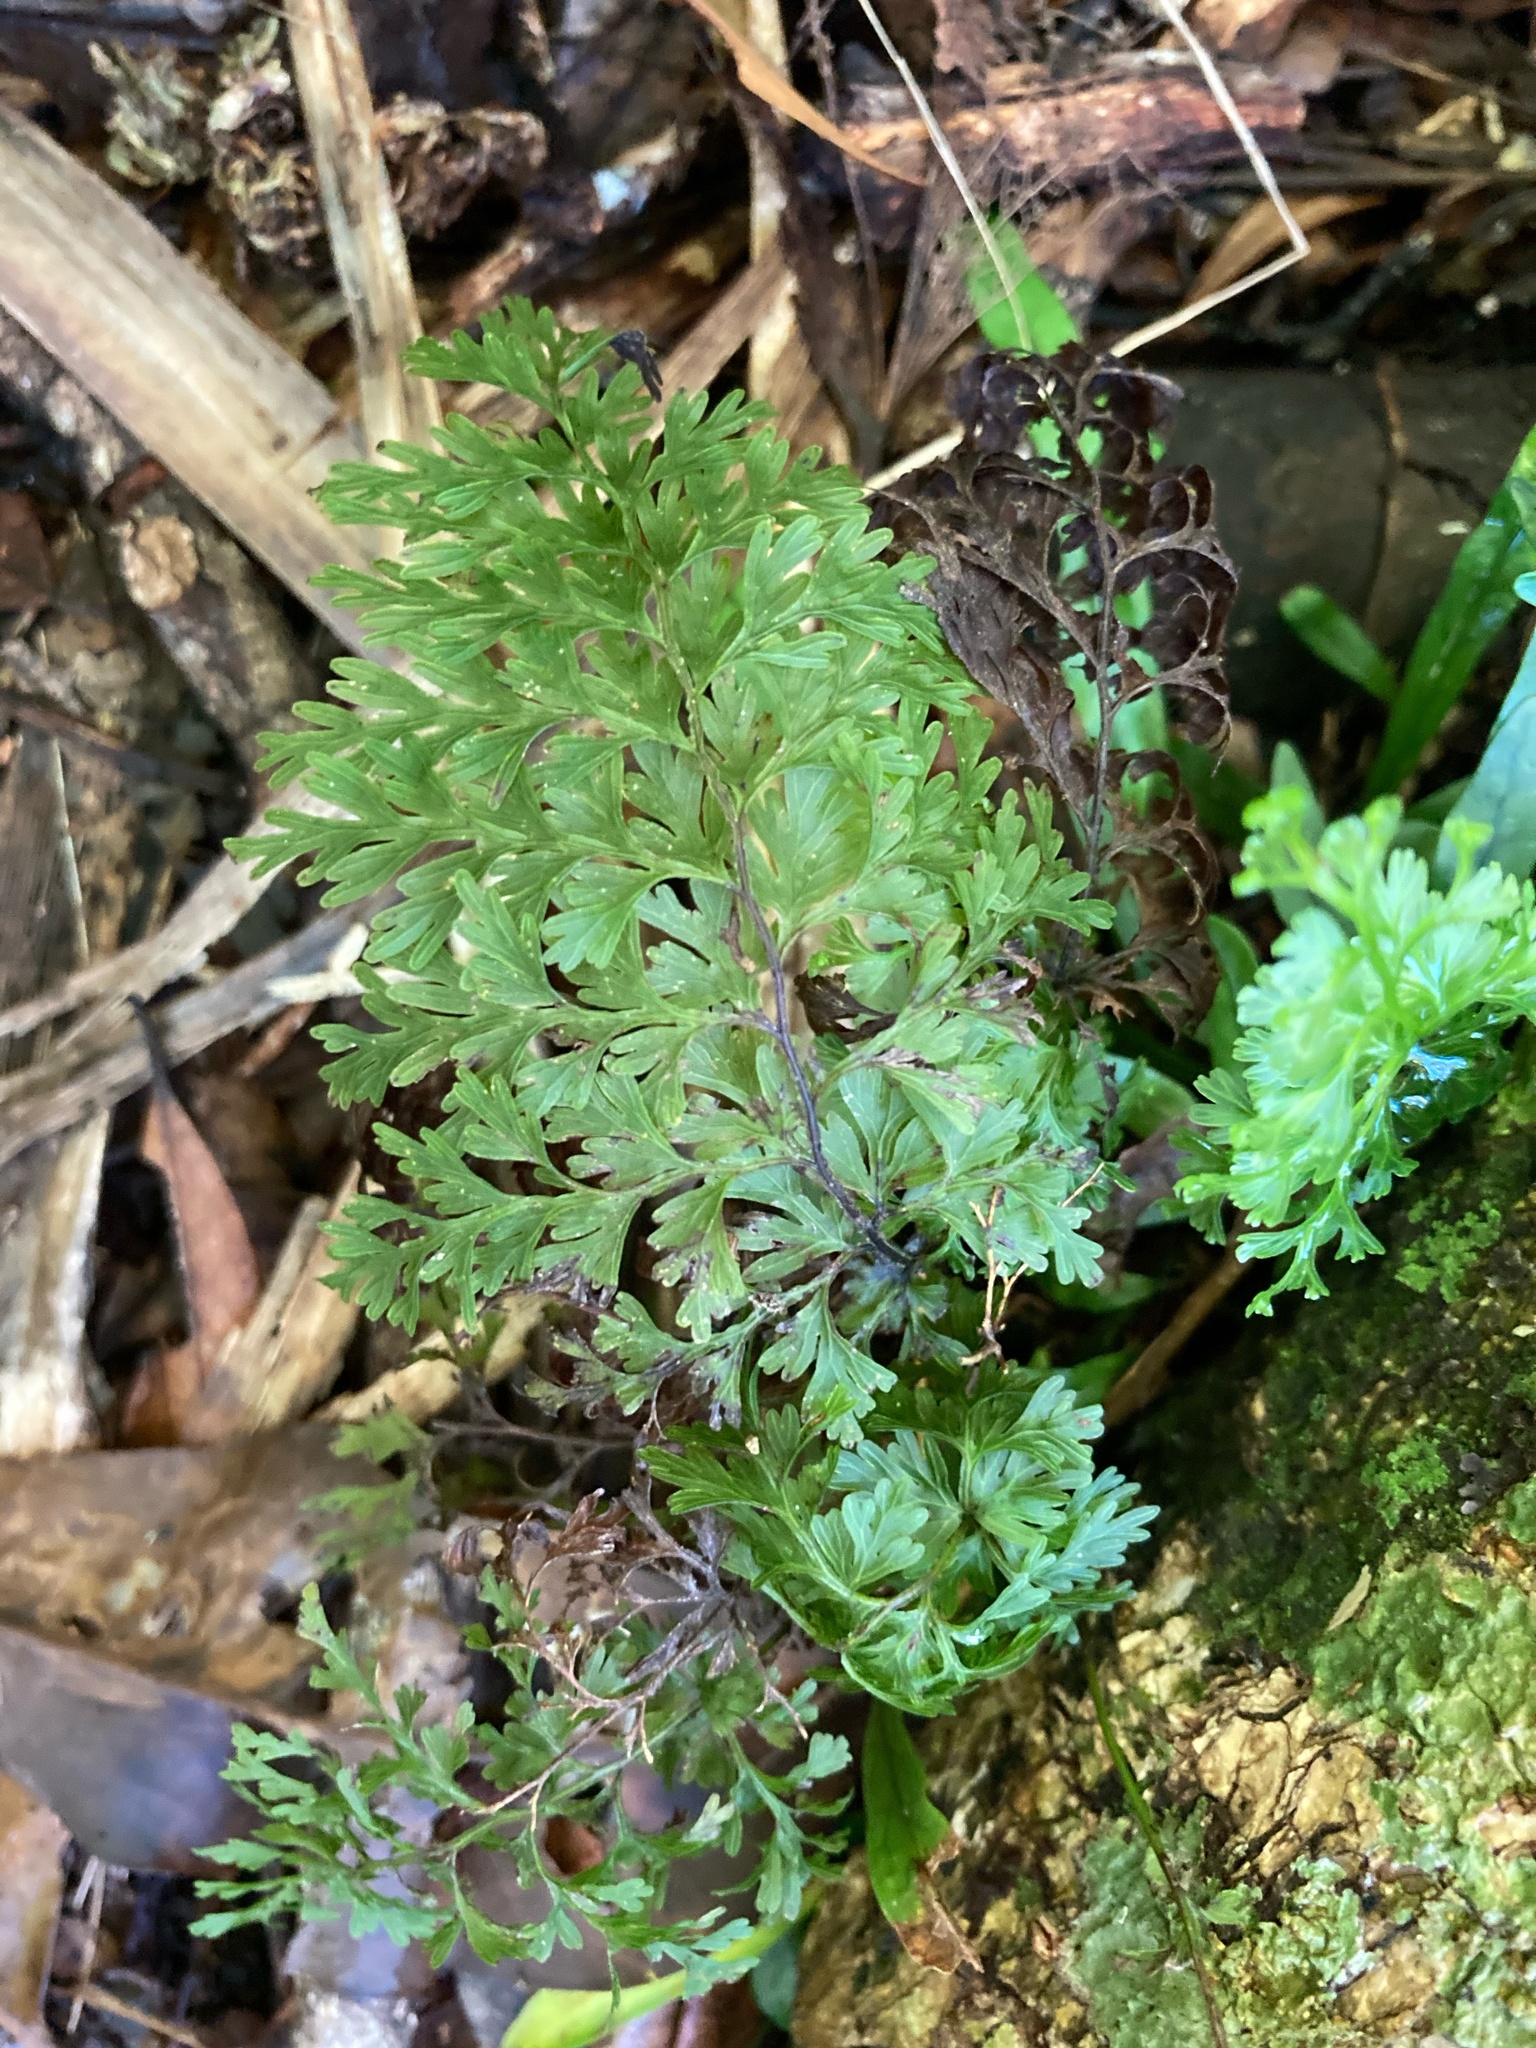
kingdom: Plantae
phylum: Tracheophyta
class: Polypodiopsida
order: Hymenophyllales
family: Hymenophyllaceae
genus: Hymenophyllum
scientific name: Hymenophyllum demissum
